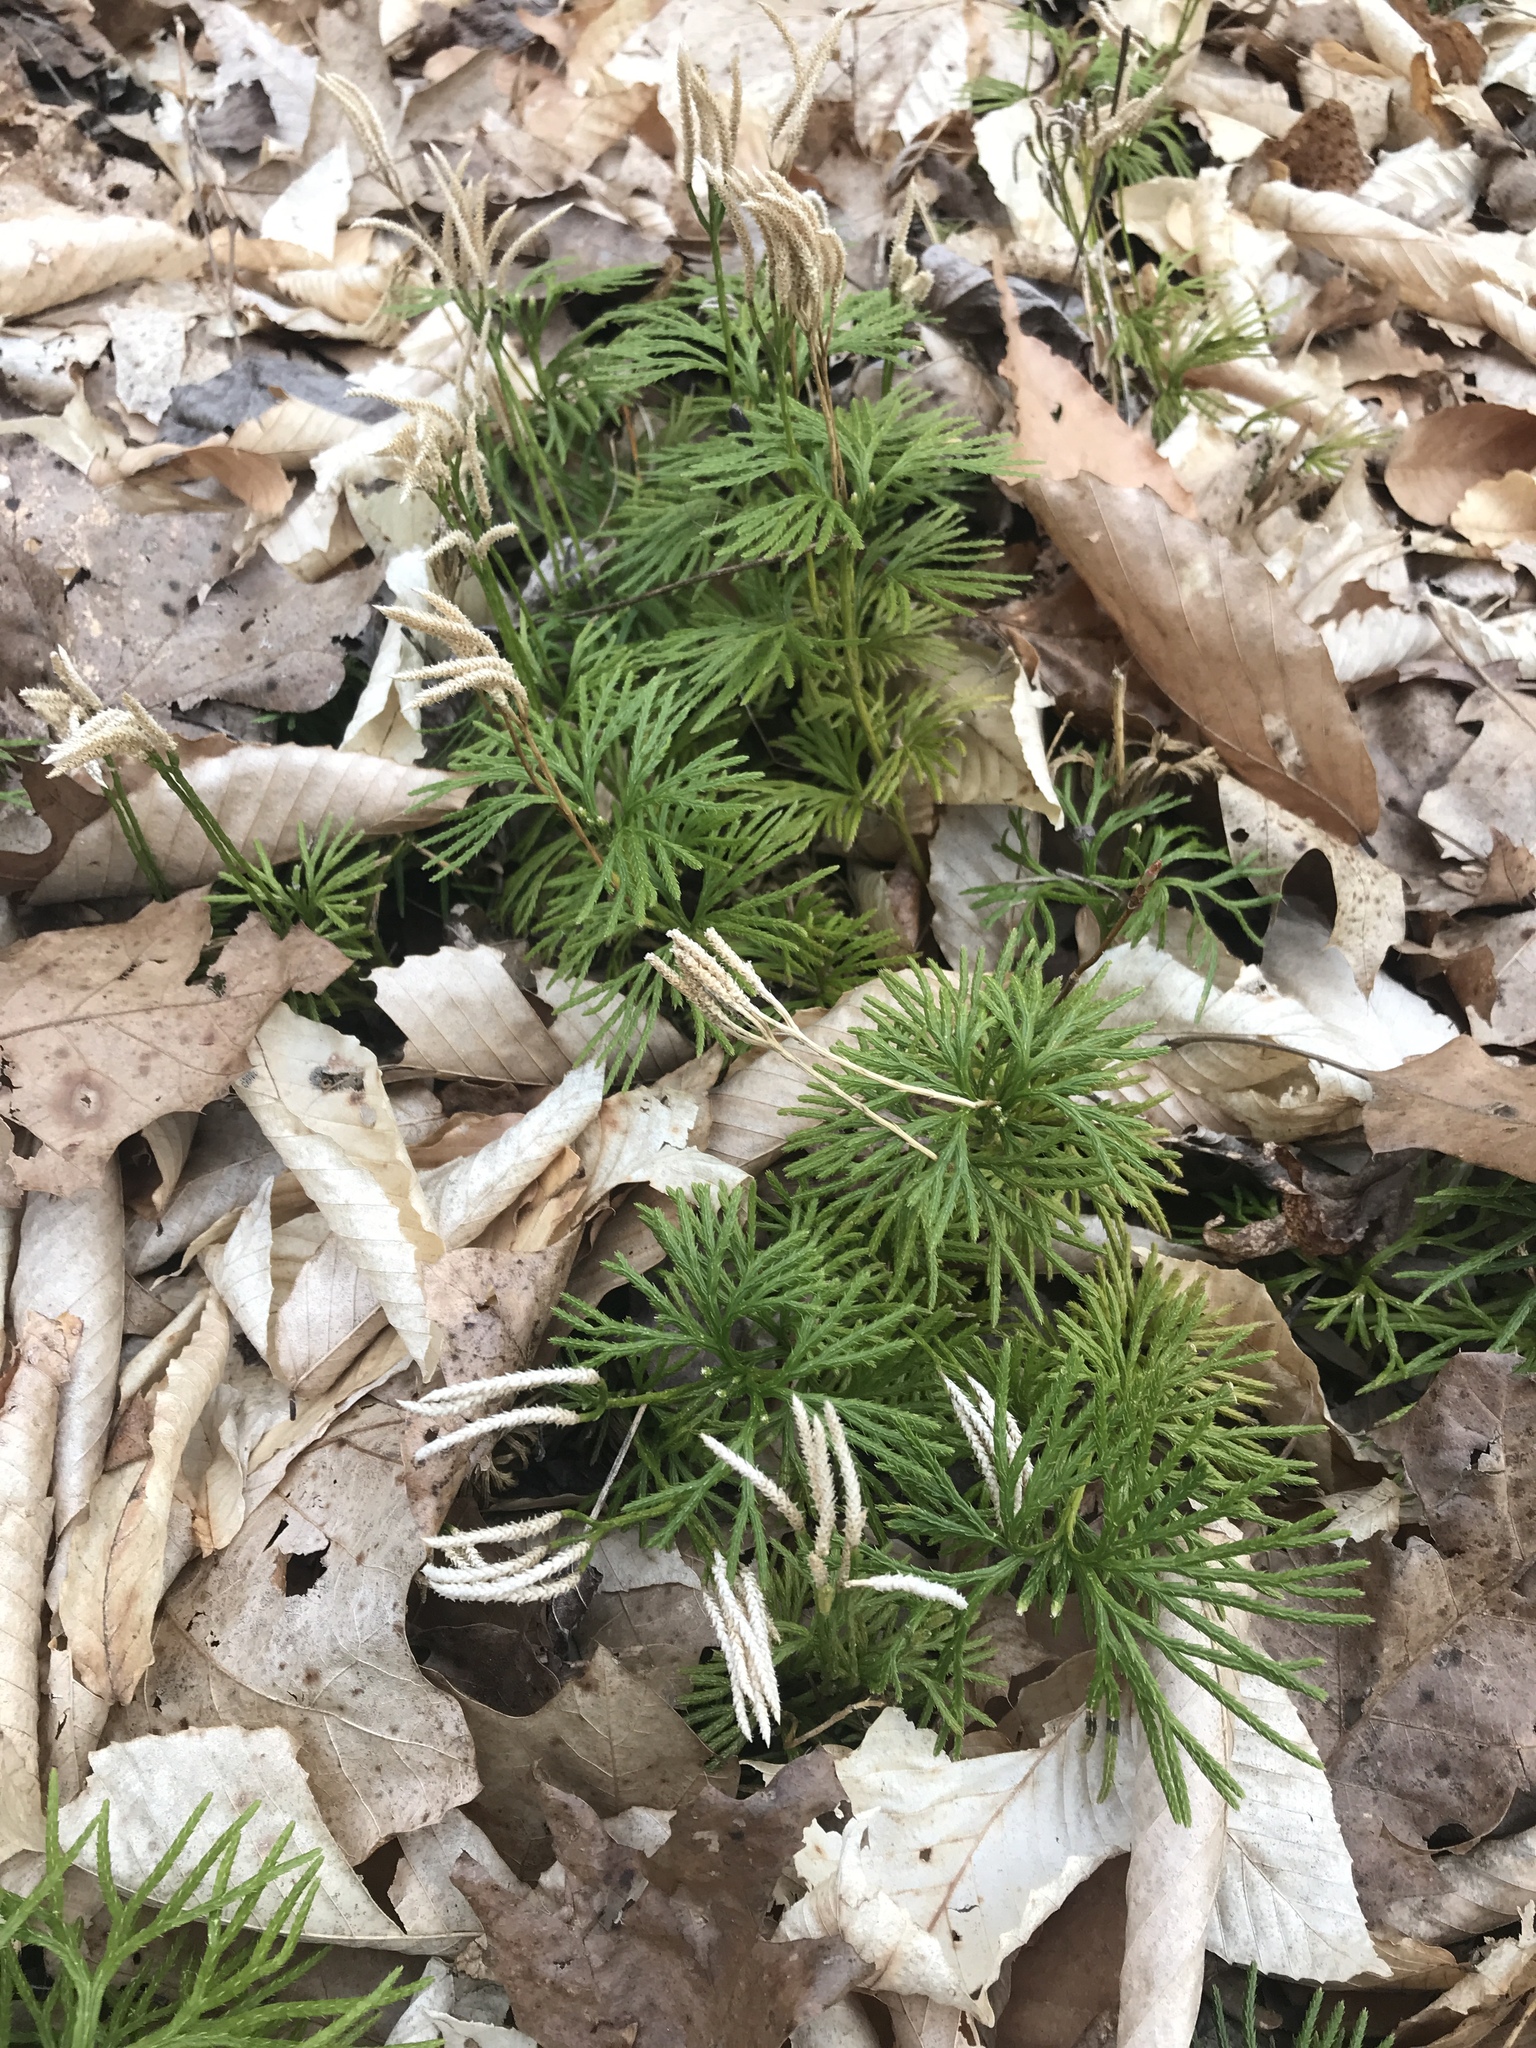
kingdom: Plantae
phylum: Tracheophyta
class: Lycopodiopsida
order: Lycopodiales
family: Lycopodiaceae
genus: Diphasiastrum
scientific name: Diphasiastrum digitatum
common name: Southern running-pine
